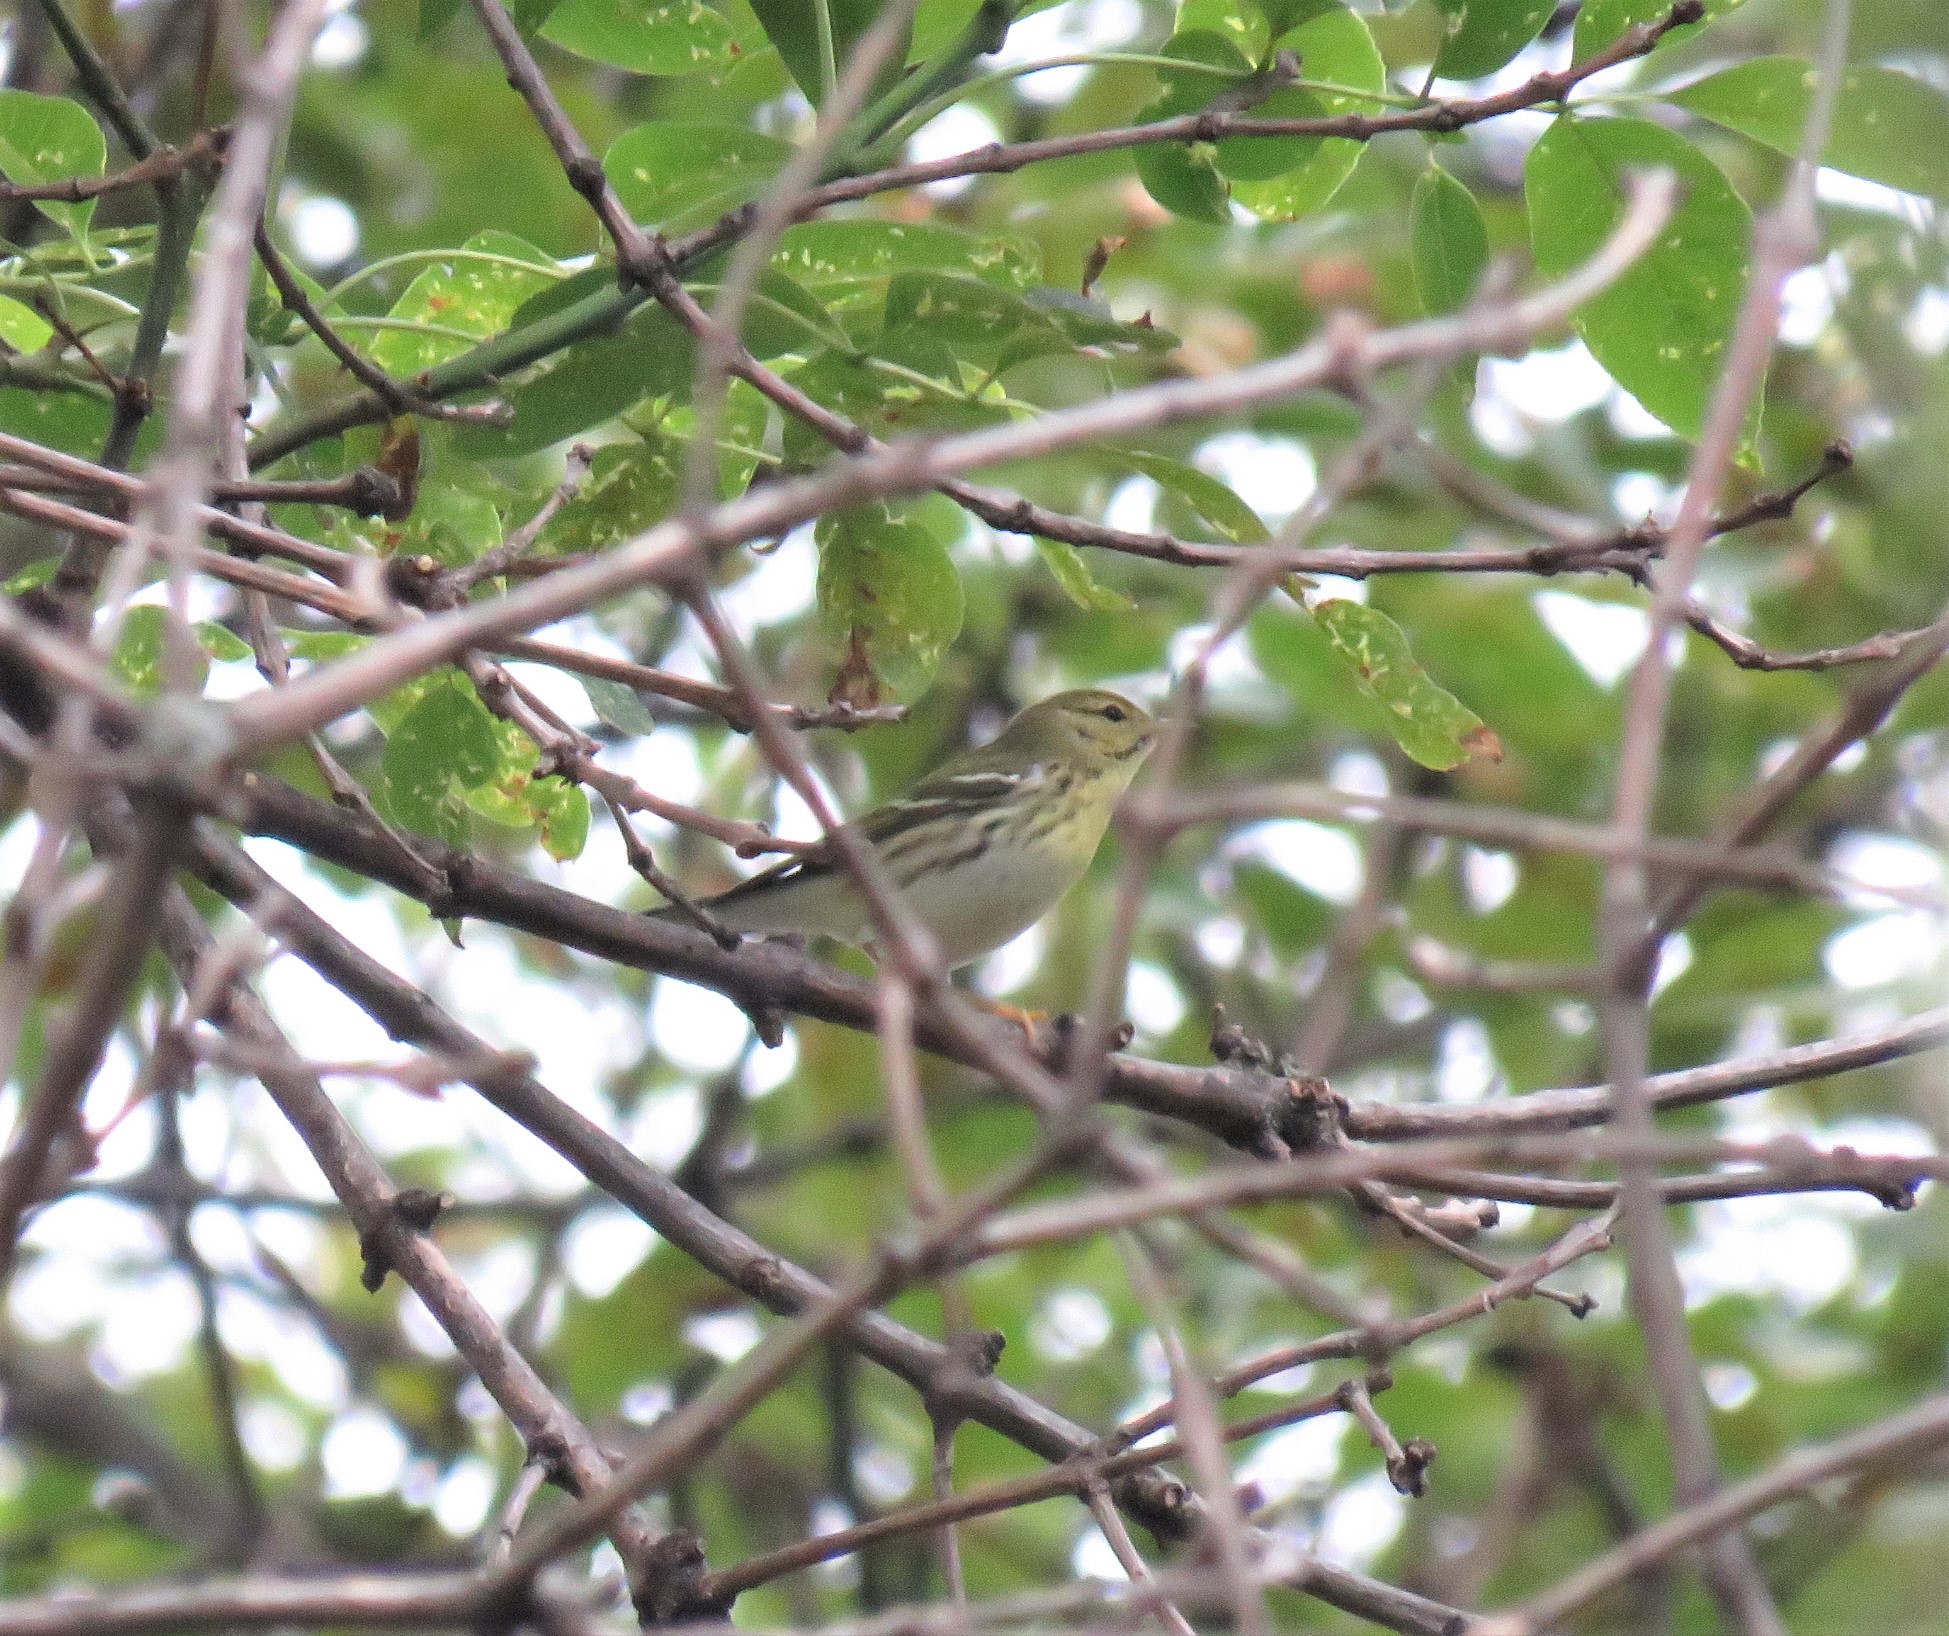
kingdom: Animalia
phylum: Chordata
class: Aves
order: Passeriformes
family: Parulidae
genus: Setophaga
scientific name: Setophaga striata
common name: Blackpoll warbler
